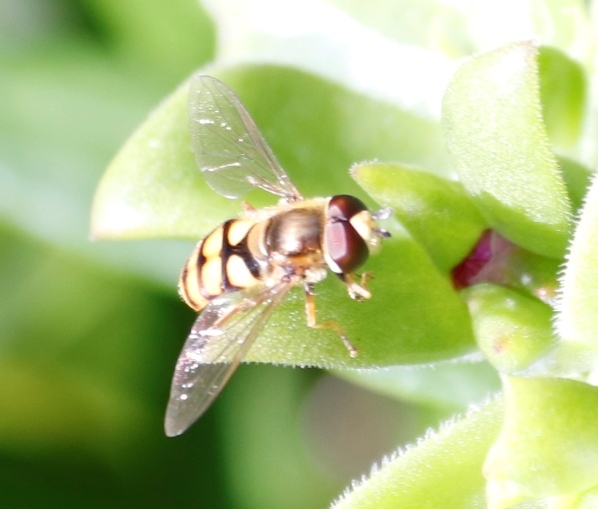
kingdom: Animalia
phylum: Arthropoda
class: Insecta
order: Diptera
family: Syrphidae
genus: Eupeodes
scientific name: Eupeodes corollae
